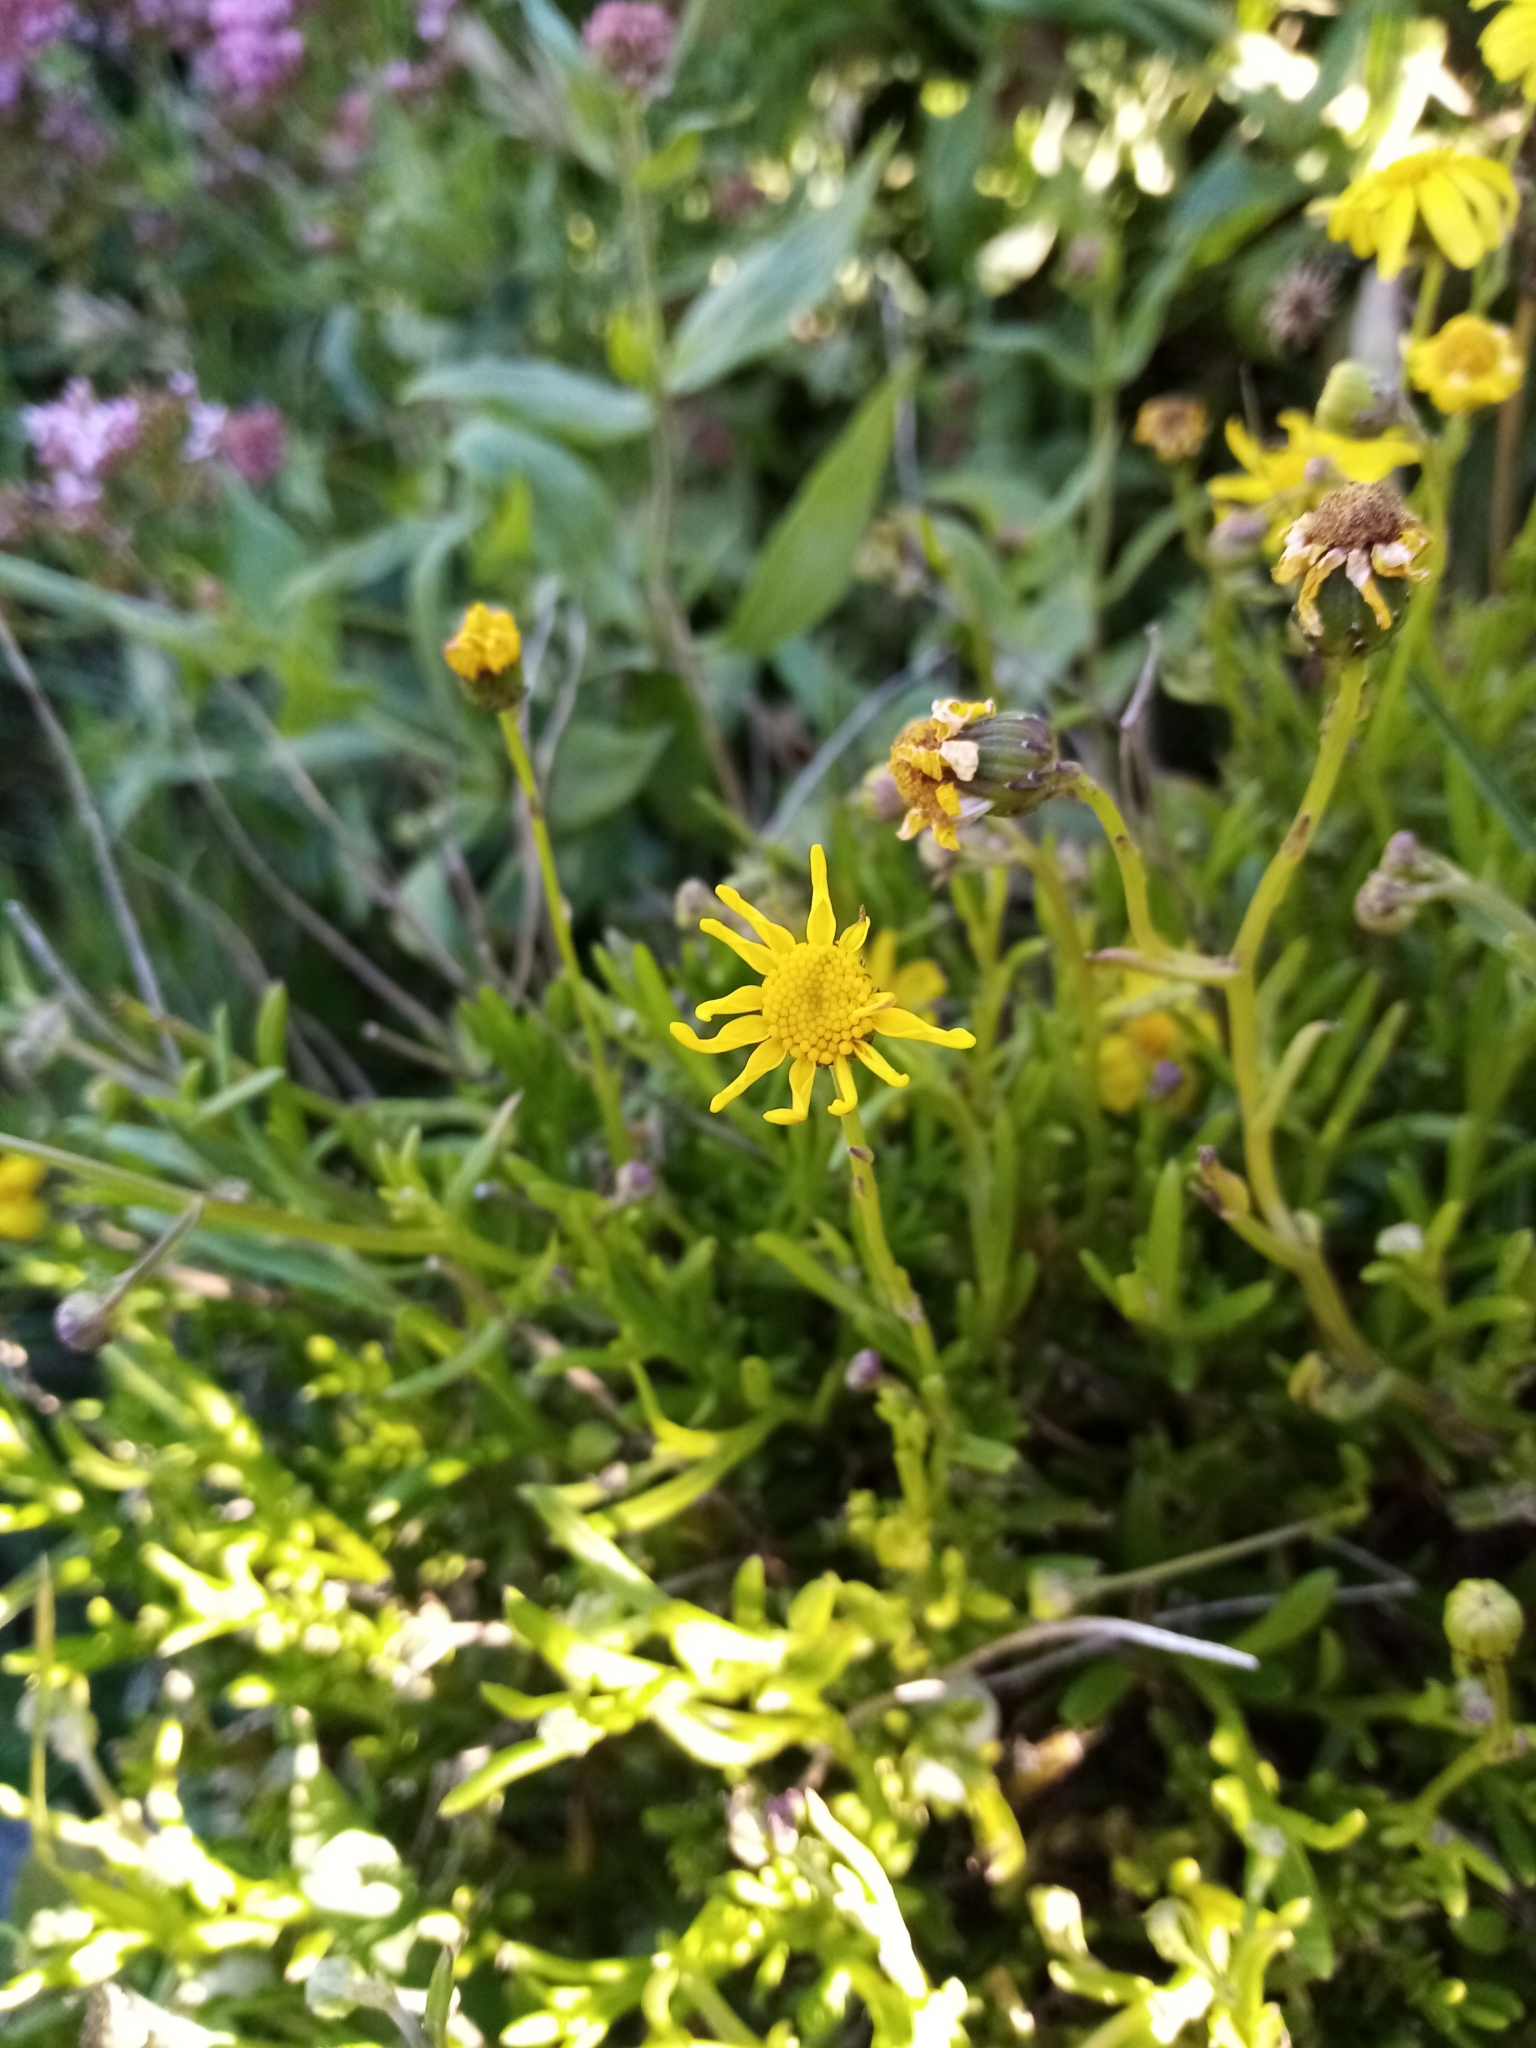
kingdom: Plantae
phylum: Tracheophyta
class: Magnoliopsida
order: Asterales
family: Asteraceae
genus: Senecio
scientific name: Senecio skirrhodon
